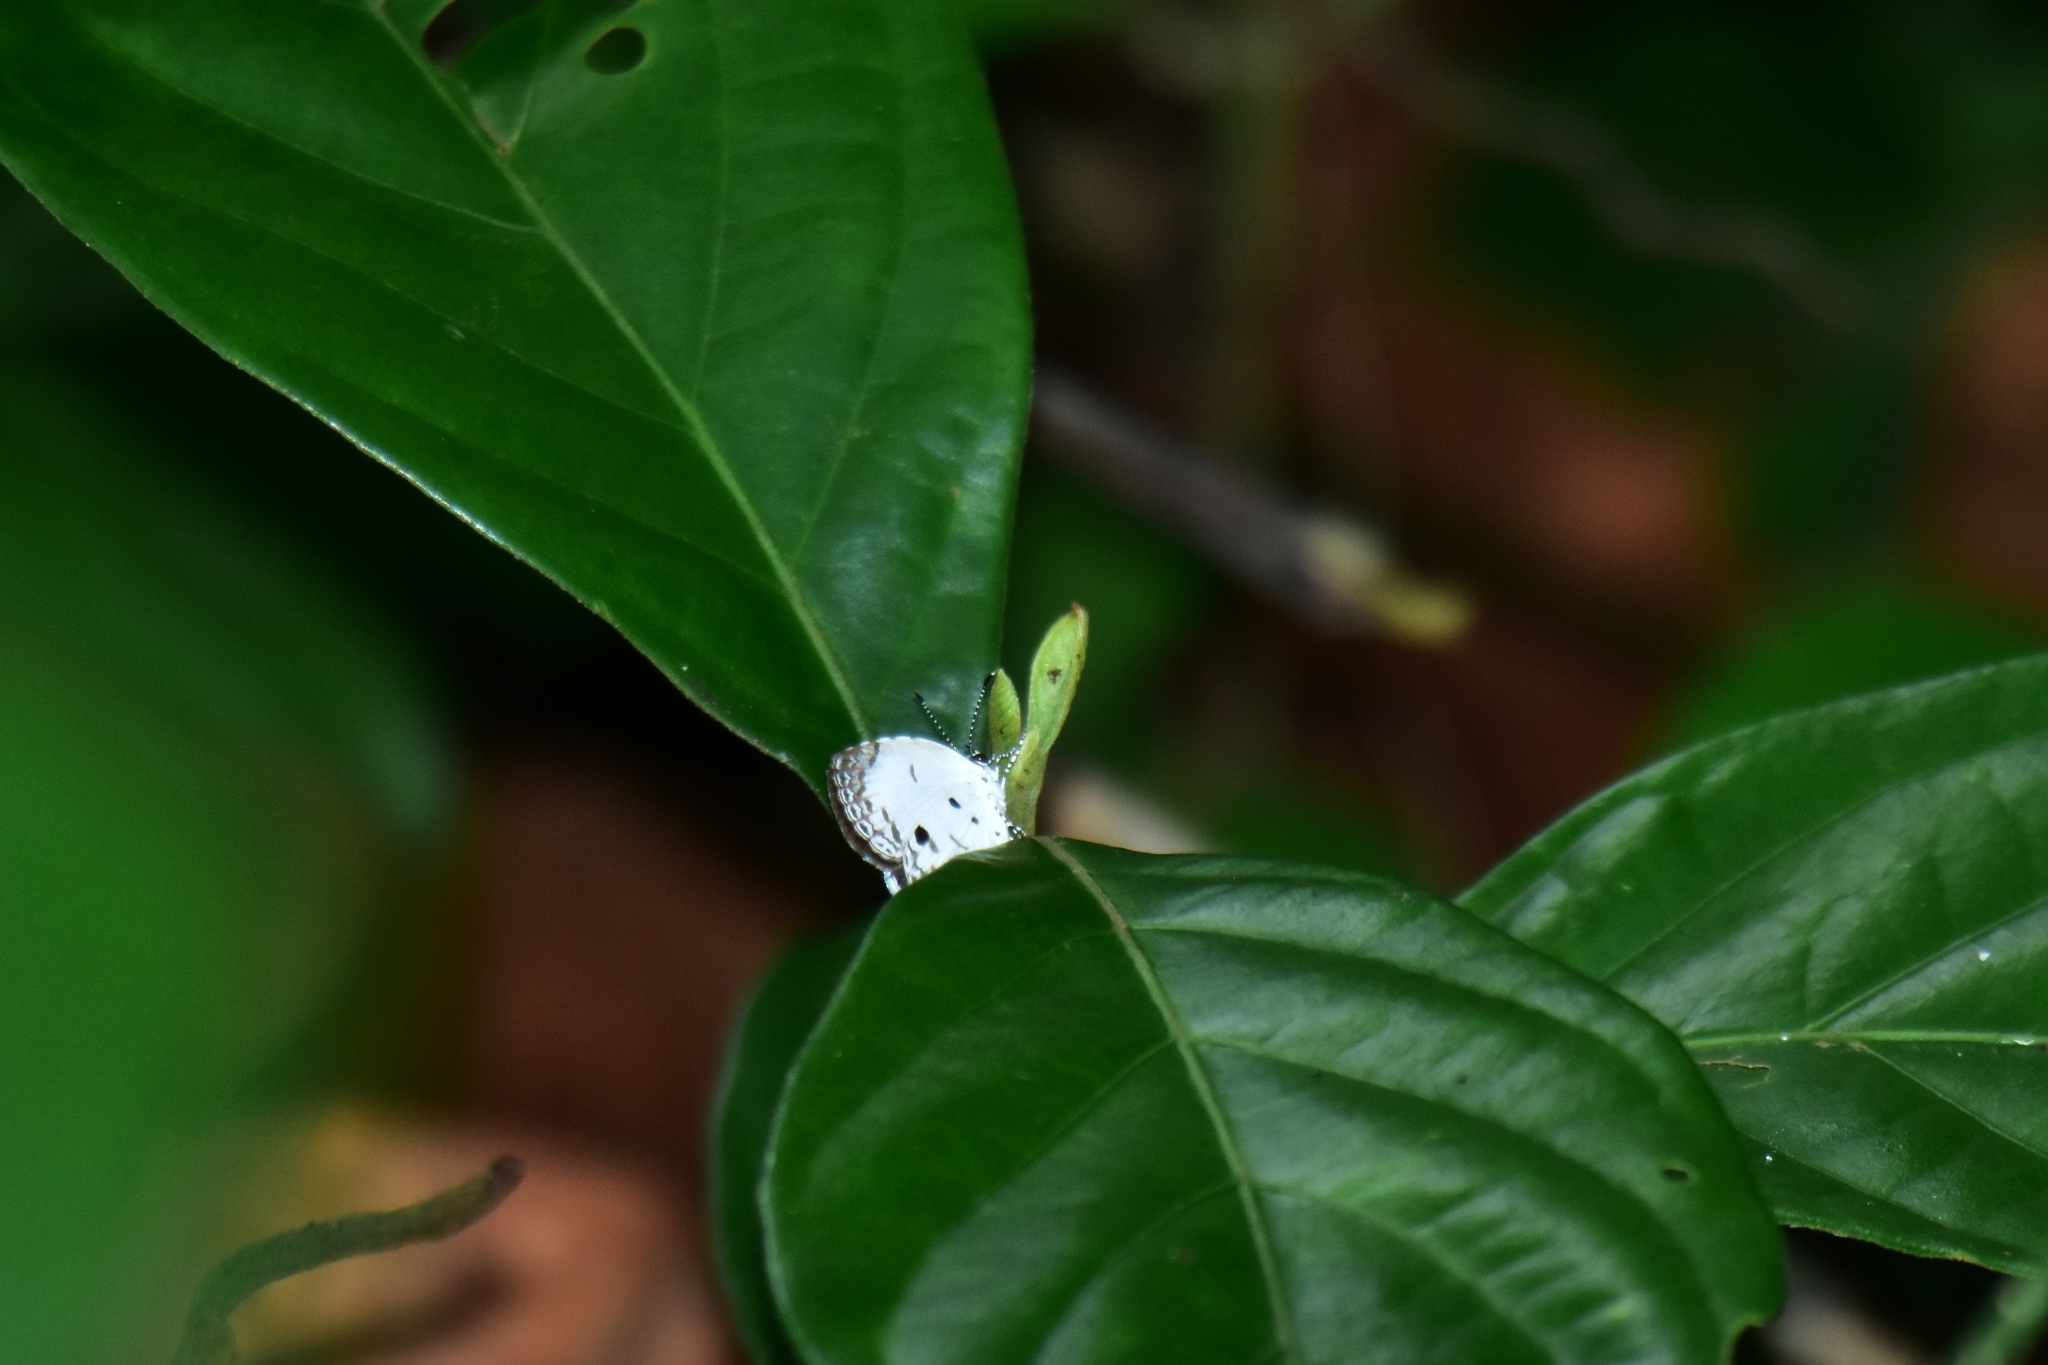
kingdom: Animalia
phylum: Arthropoda
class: Insecta
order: Lepidoptera
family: Lycaenidae
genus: Neopithecops
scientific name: Neopithecops zalmora
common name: Quaker
